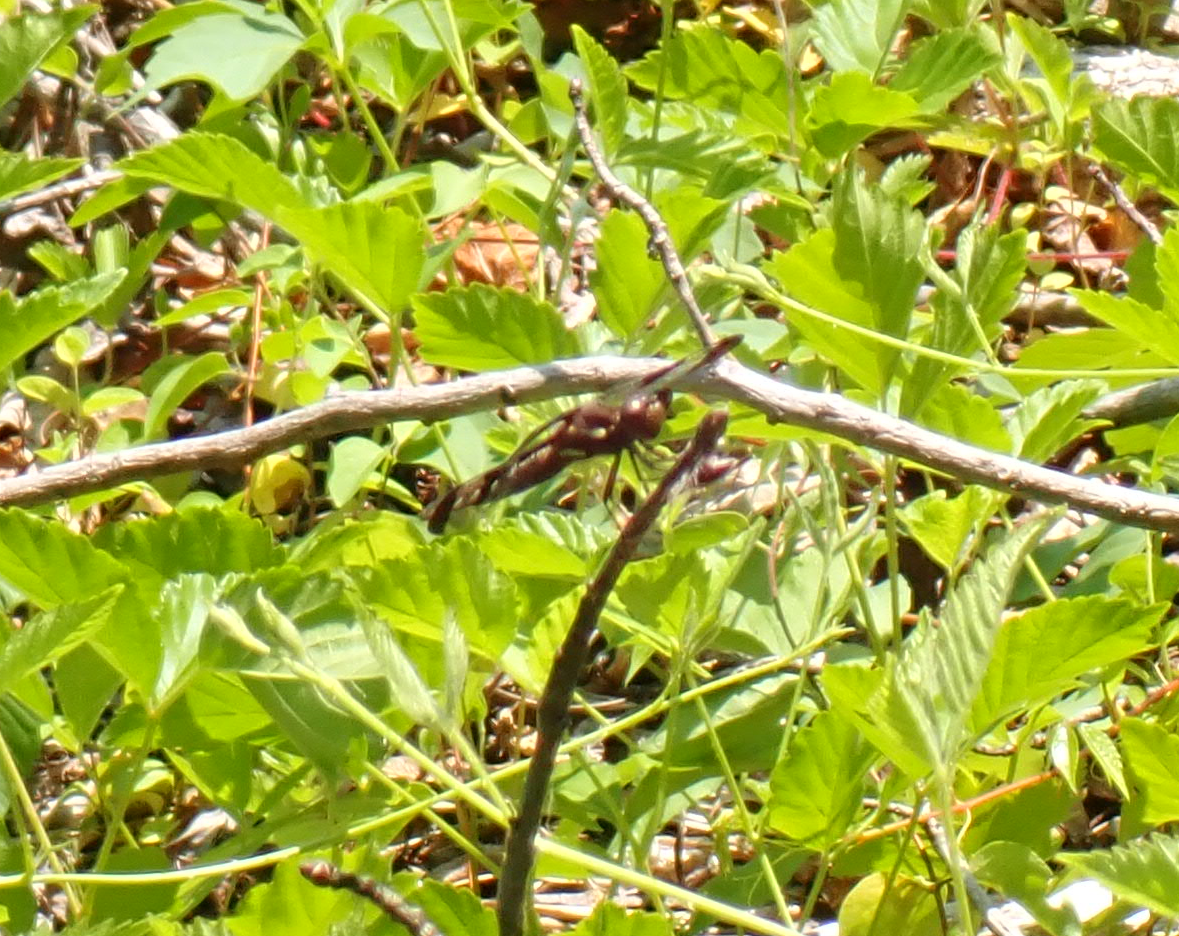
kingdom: Animalia
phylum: Arthropoda
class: Insecta
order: Odonata
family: Libellulidae
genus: Plathemis
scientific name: Plathemis lydia
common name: Common whitetail
